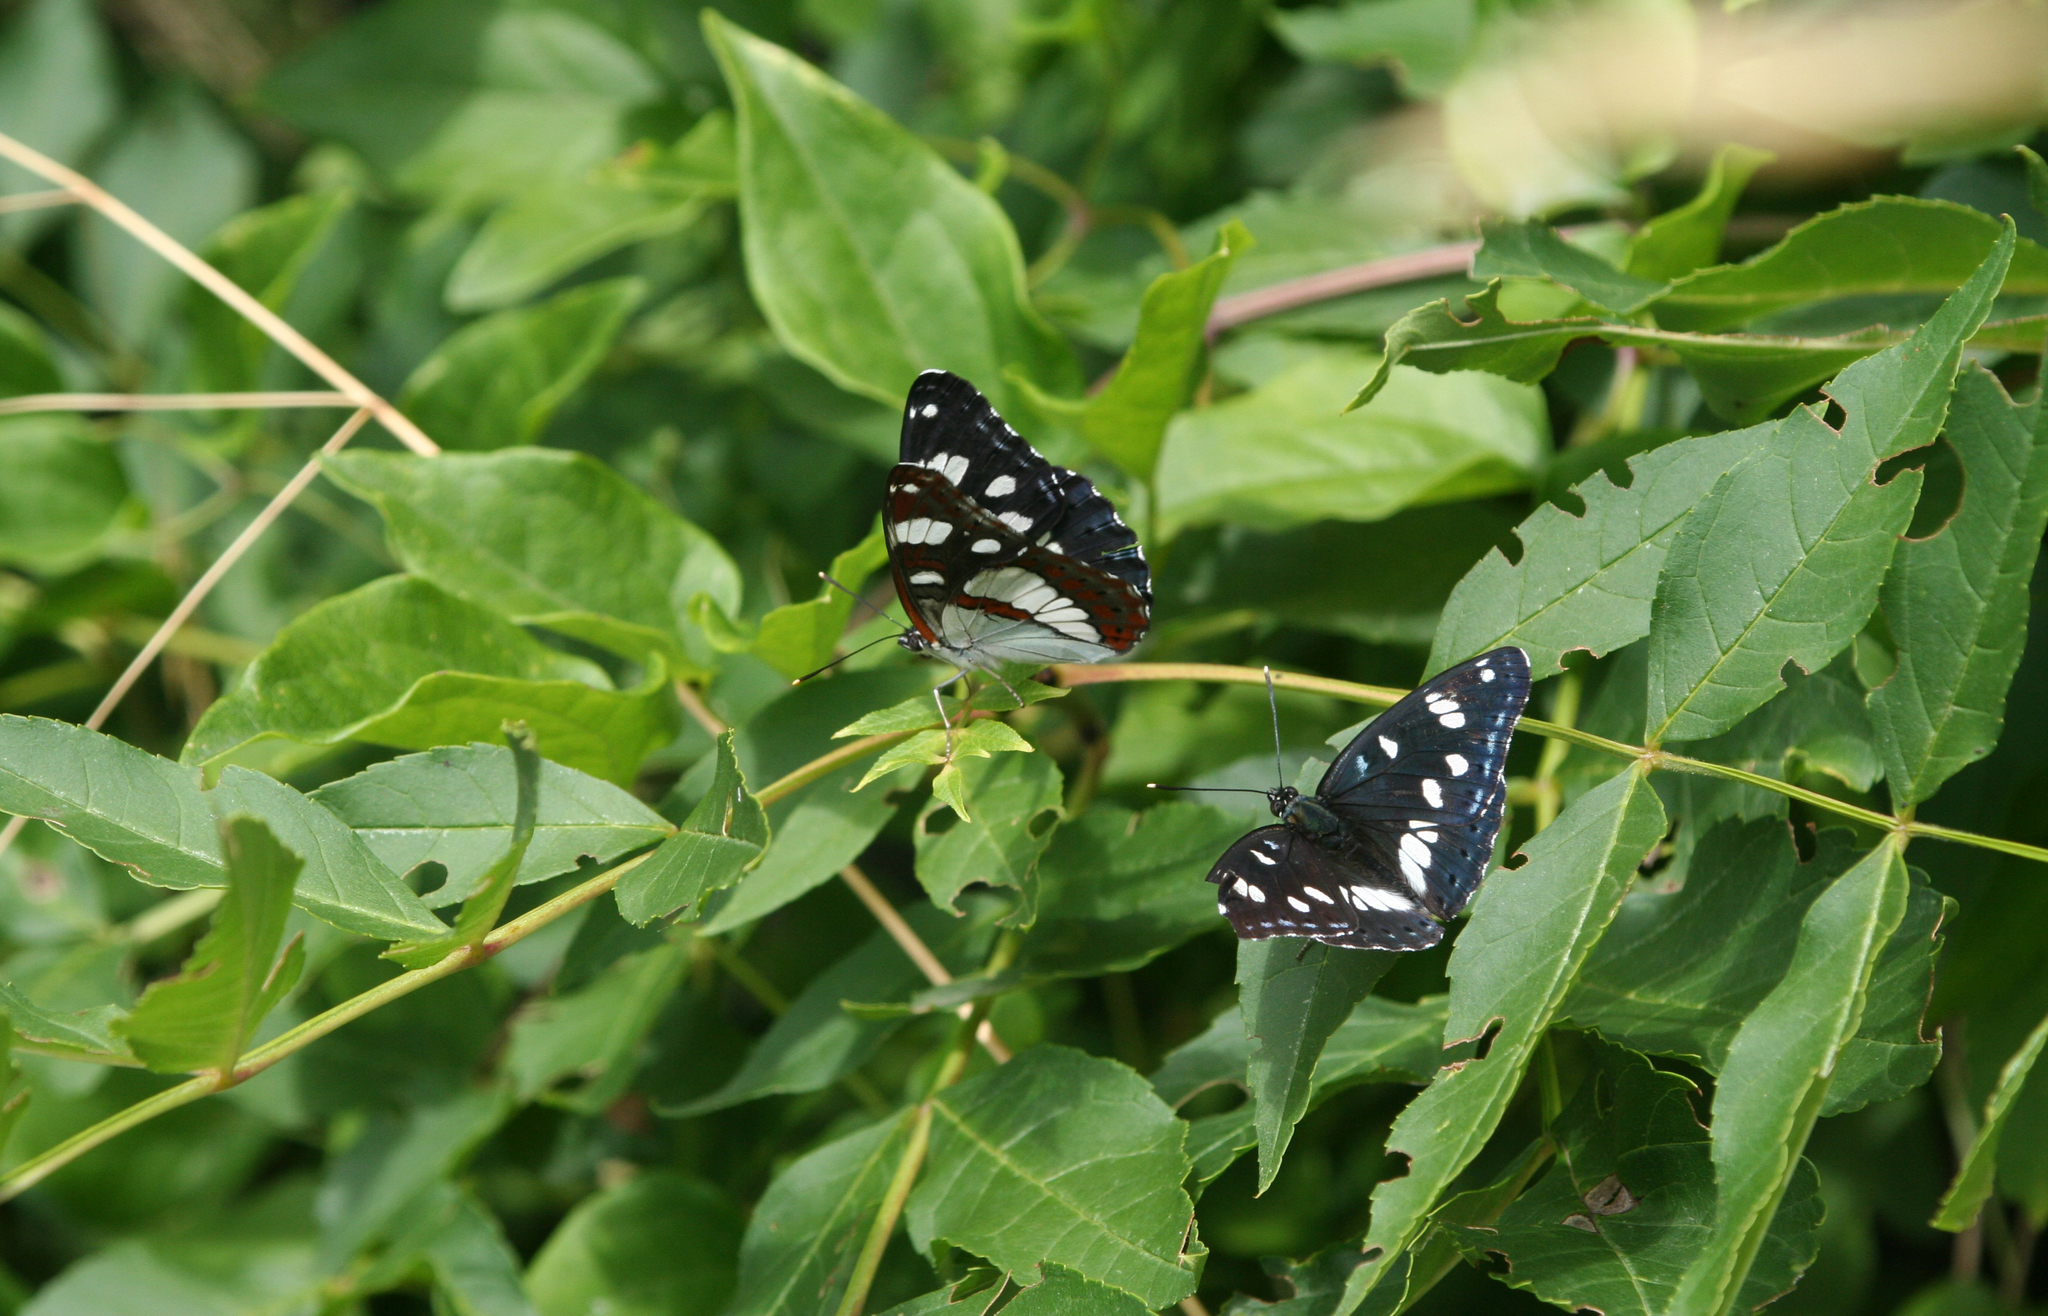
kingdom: Animalia
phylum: Arthropoda
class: Insecta
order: Lepidoptera
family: Nymphalidae
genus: Limenitis
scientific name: Limenitis reducta
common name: Southern white admiral
